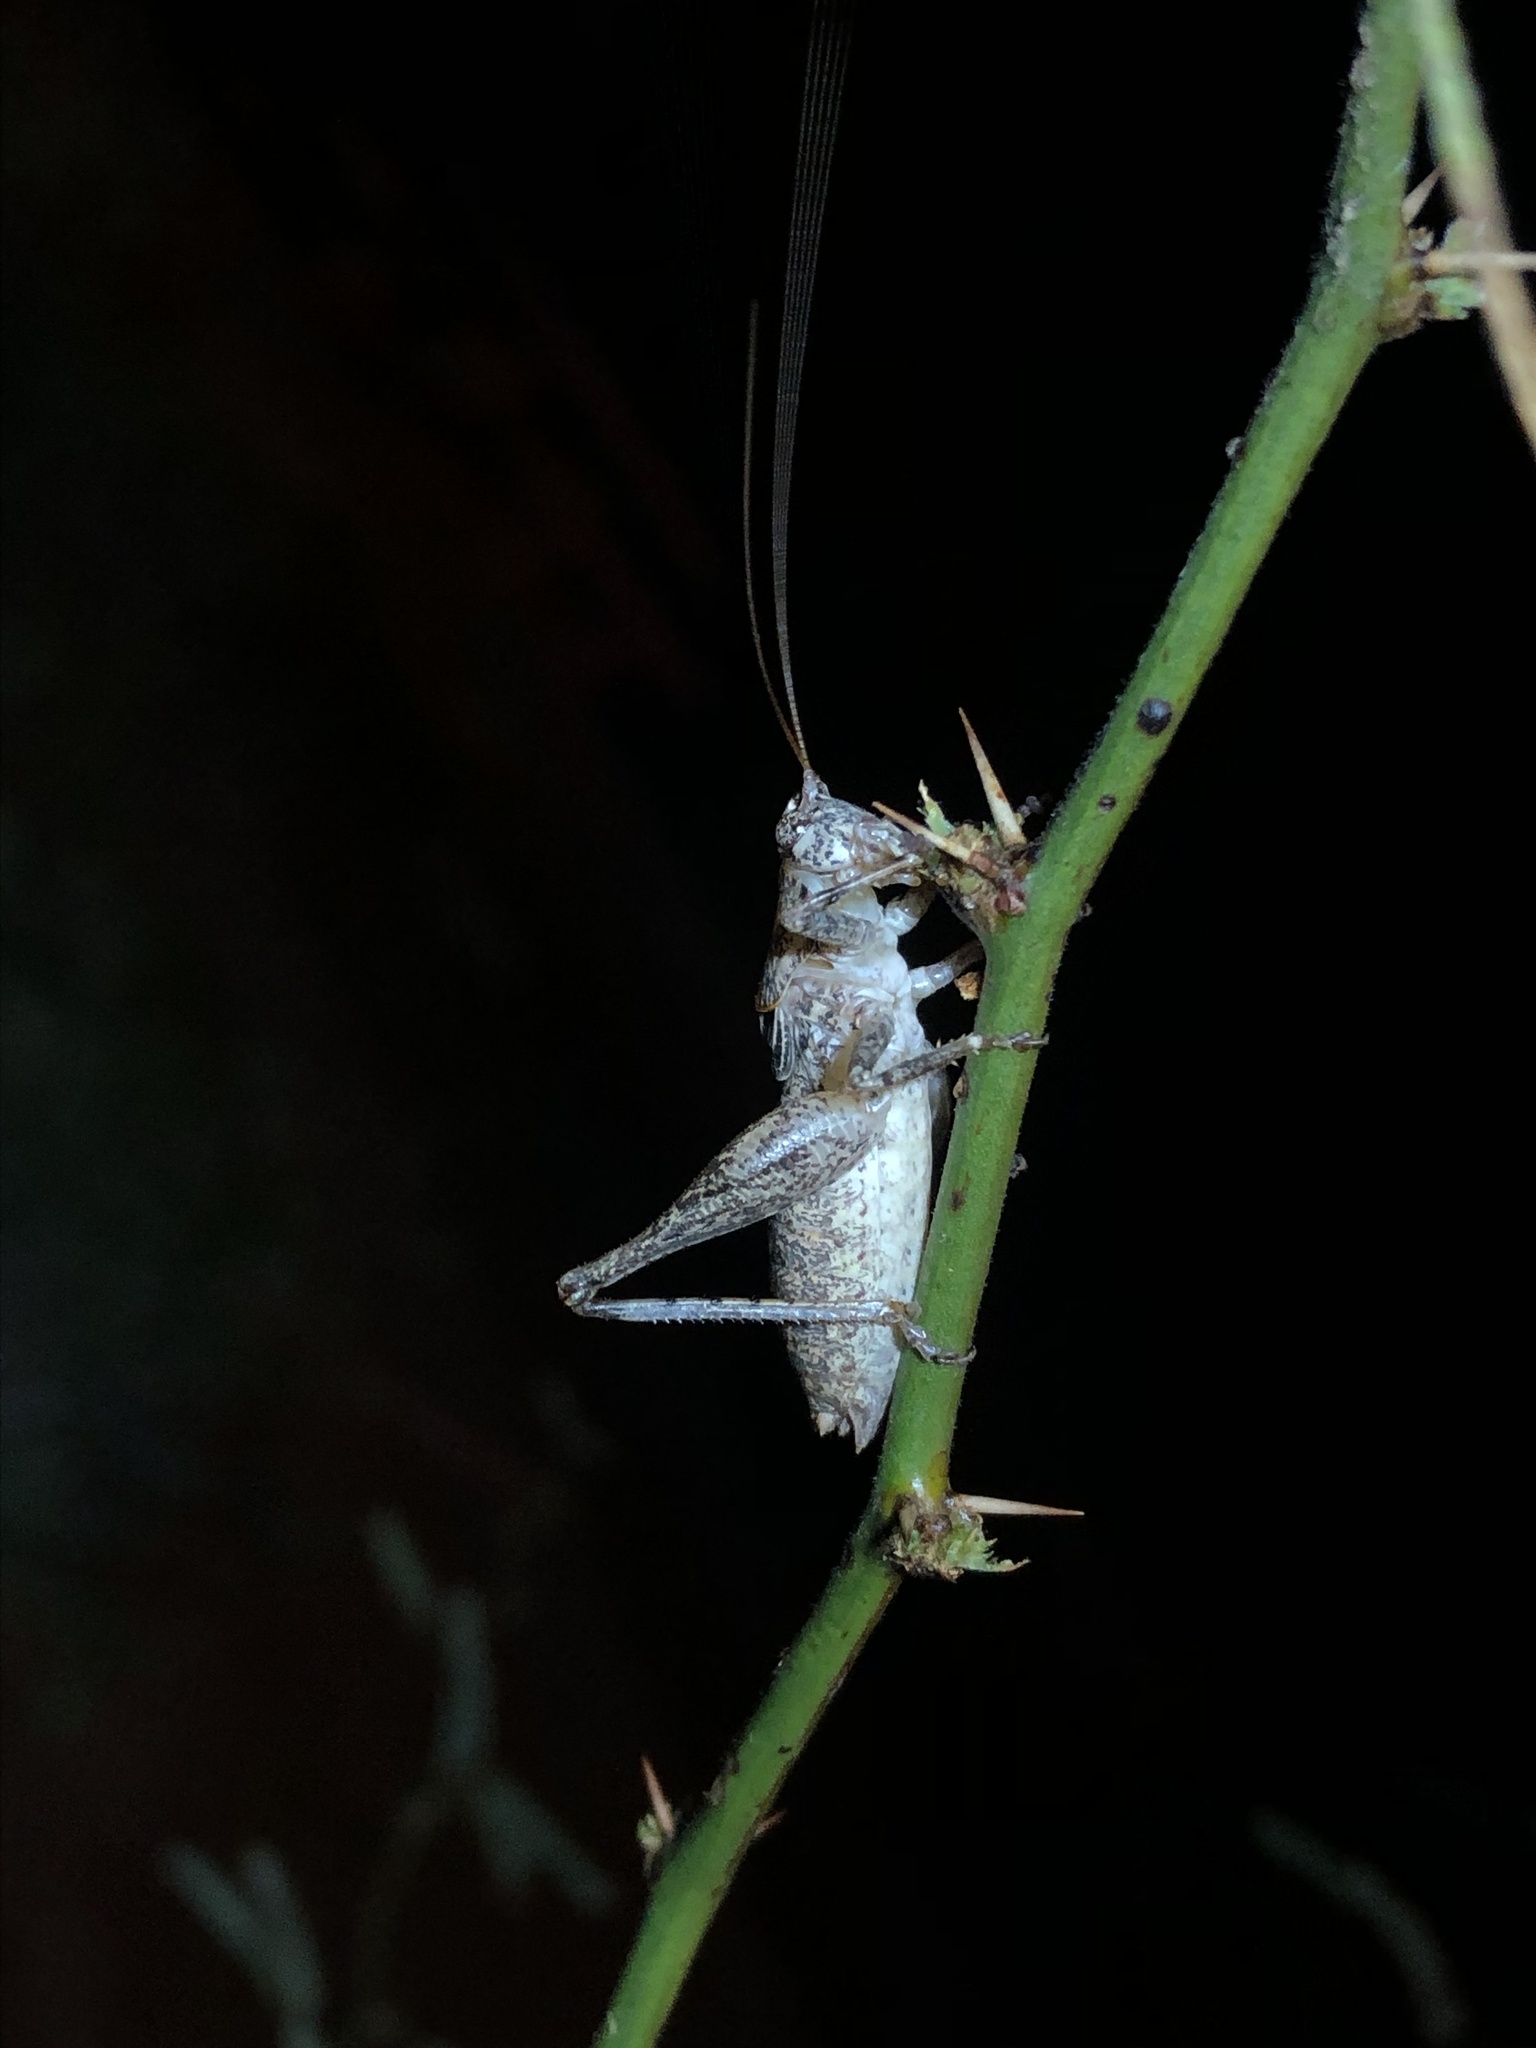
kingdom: Animalia
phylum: Arthropoda
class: Insecta
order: Orthoptera
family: Tettigoniidae
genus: Ateloplus
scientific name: Ateloplus schwarzi
